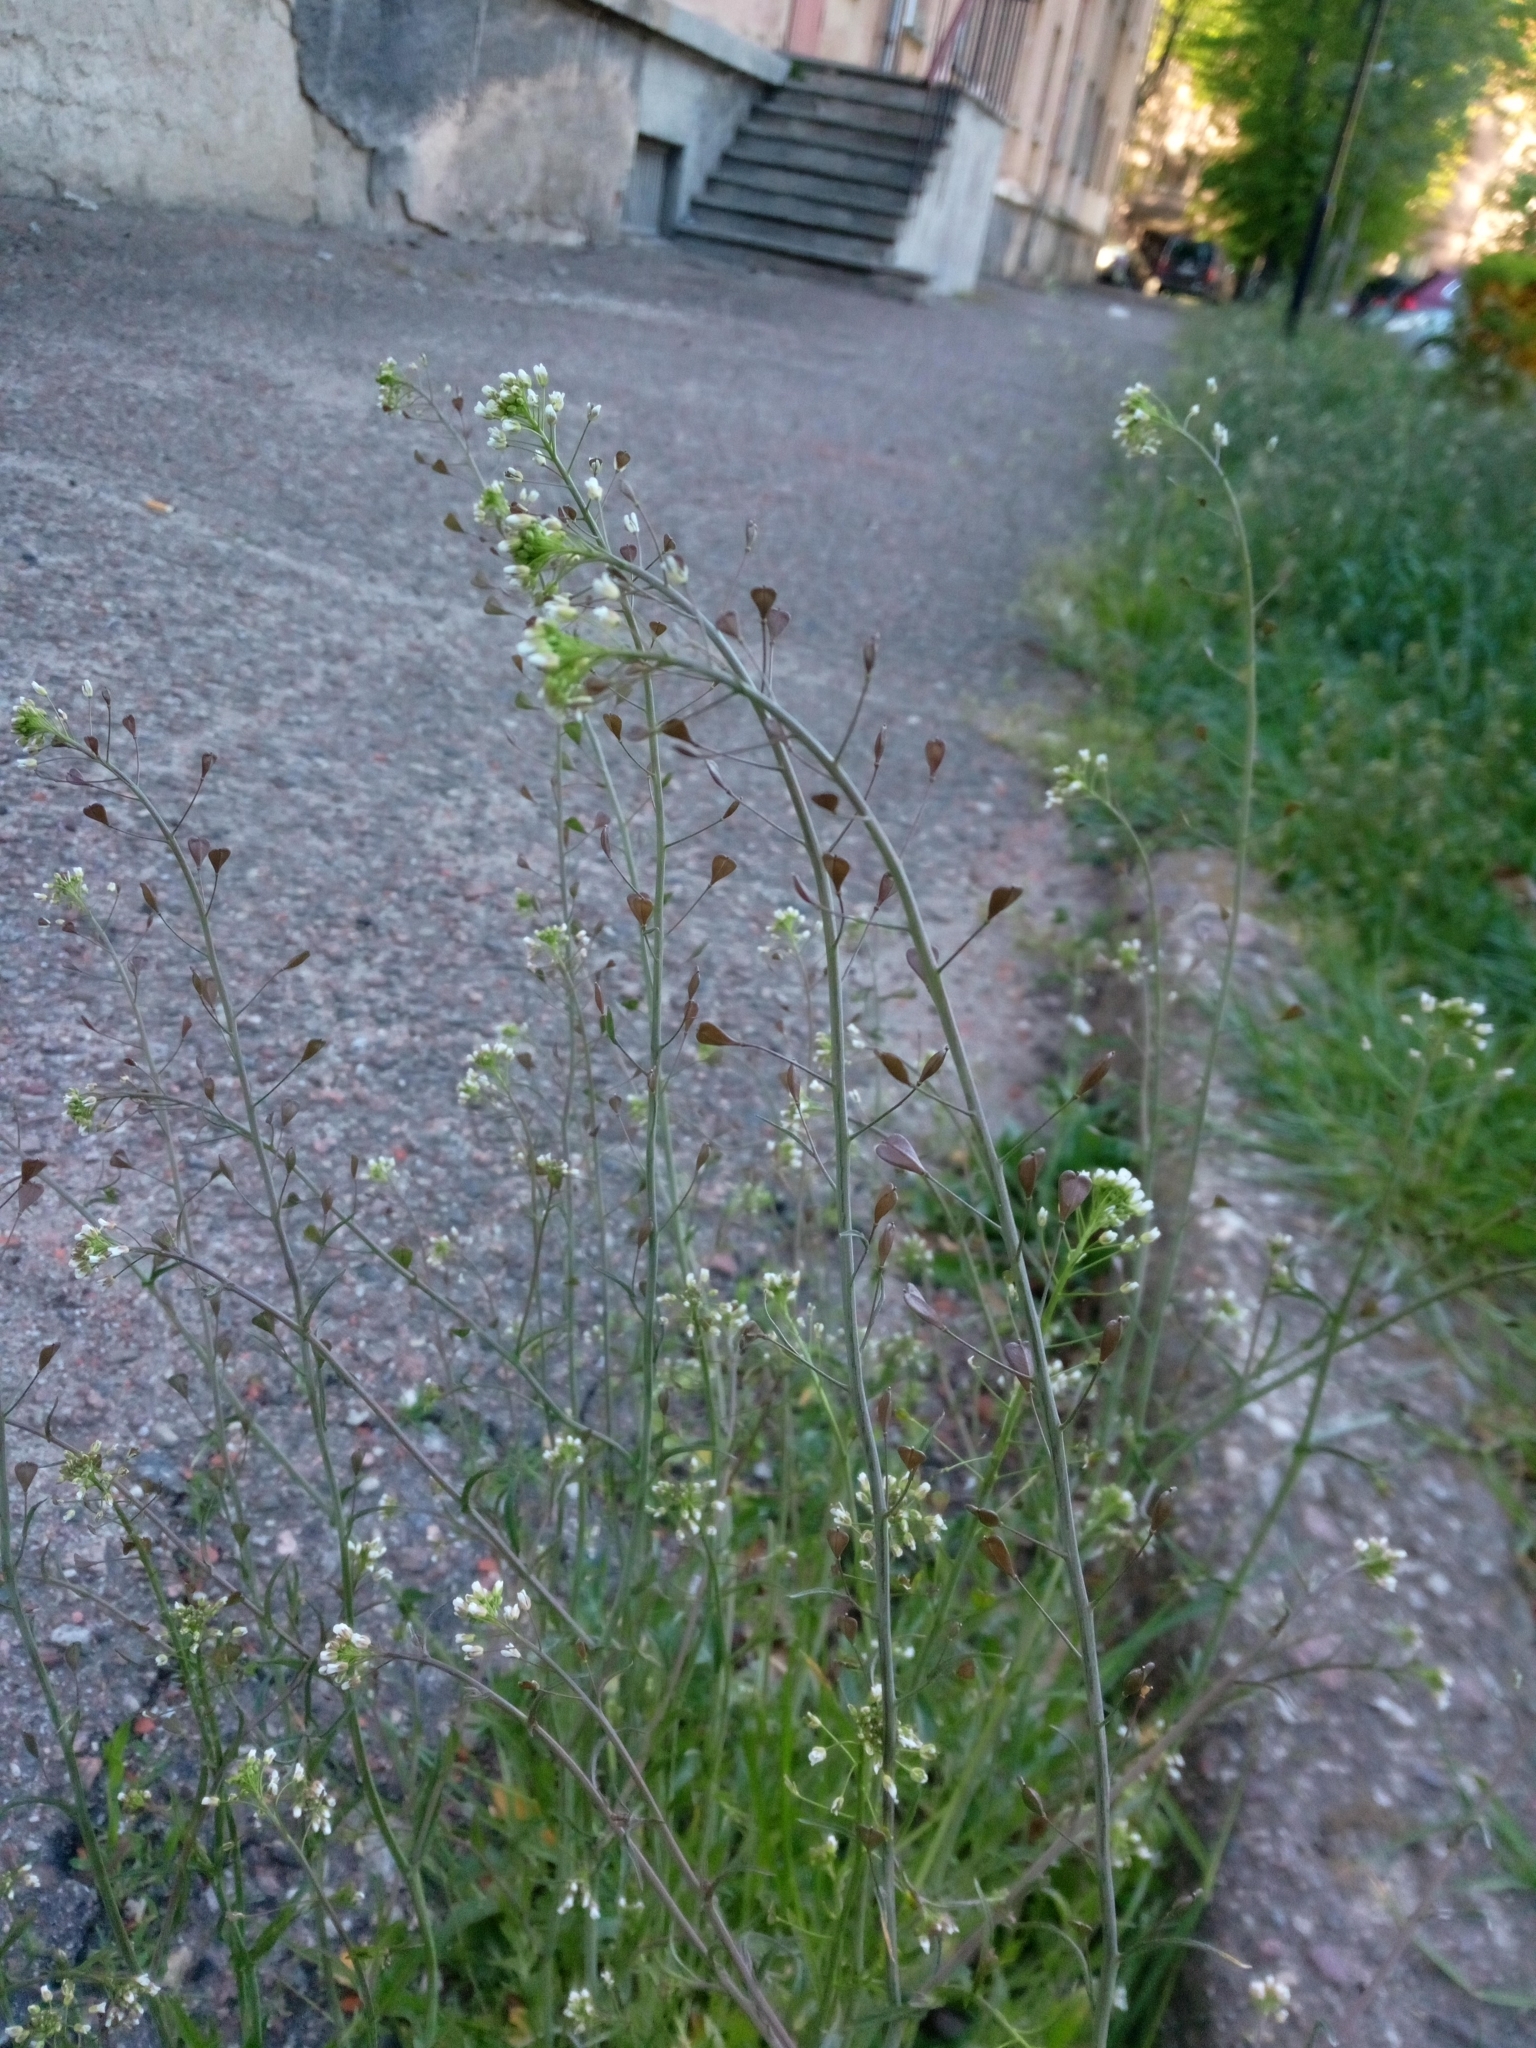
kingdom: Plantae
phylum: Tracheophyta
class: Magnoliopsida
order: Brassicales
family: Brassicaceae
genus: Capsella
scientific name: Capsella bursa-pastoris
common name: Shepherd's purse
